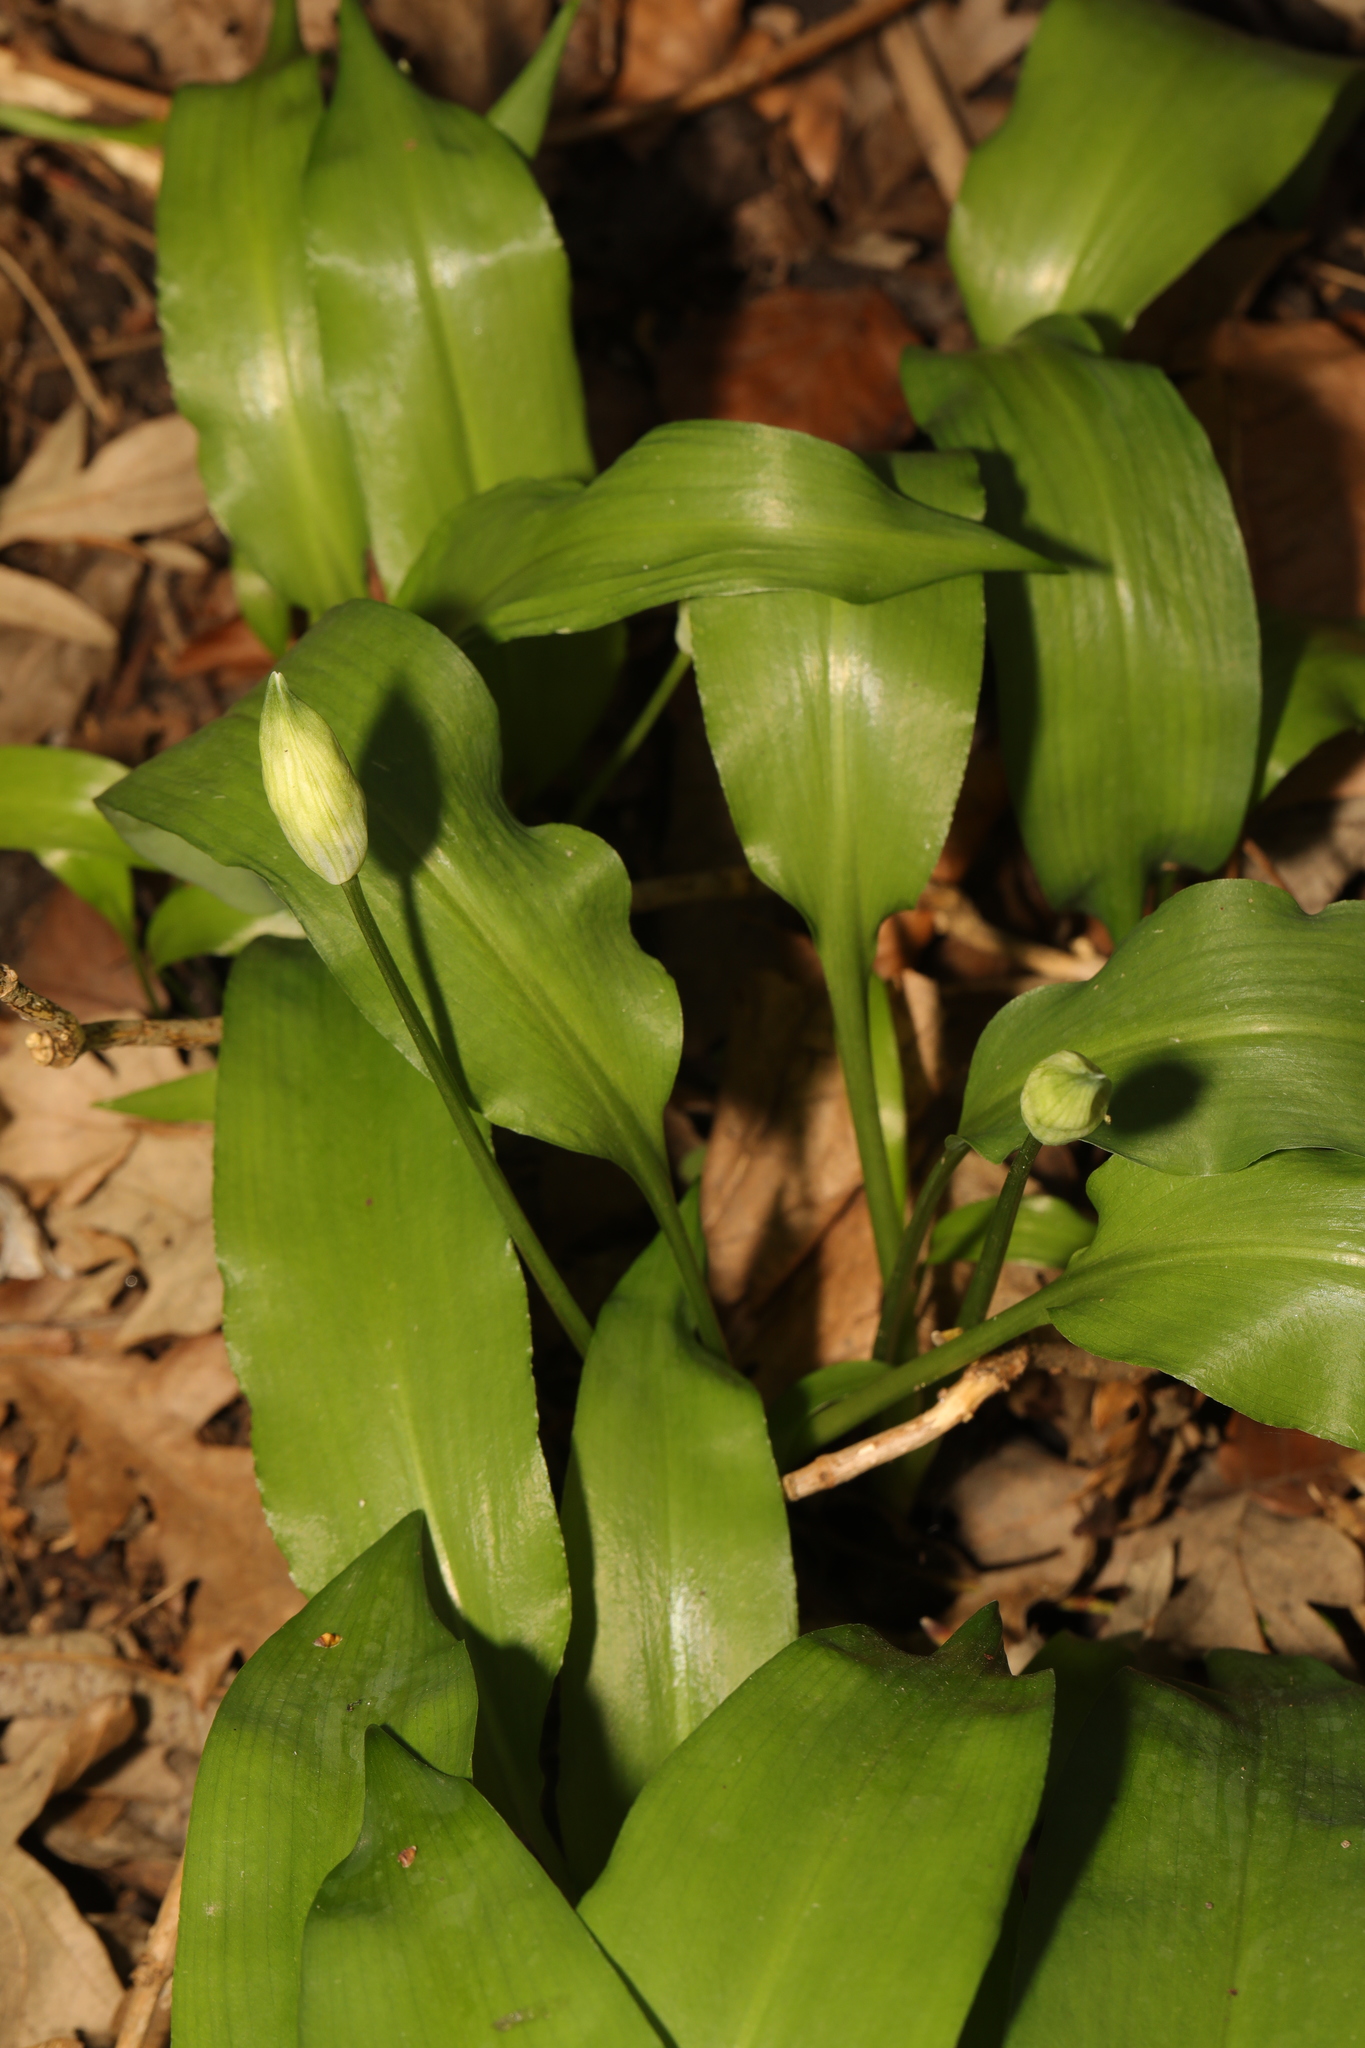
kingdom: Plantae
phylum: Tracheophyta
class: Liliopsida
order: Asparagales
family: Amaryllidaceae
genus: Allium
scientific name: Allium ursinum
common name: Ramsons
